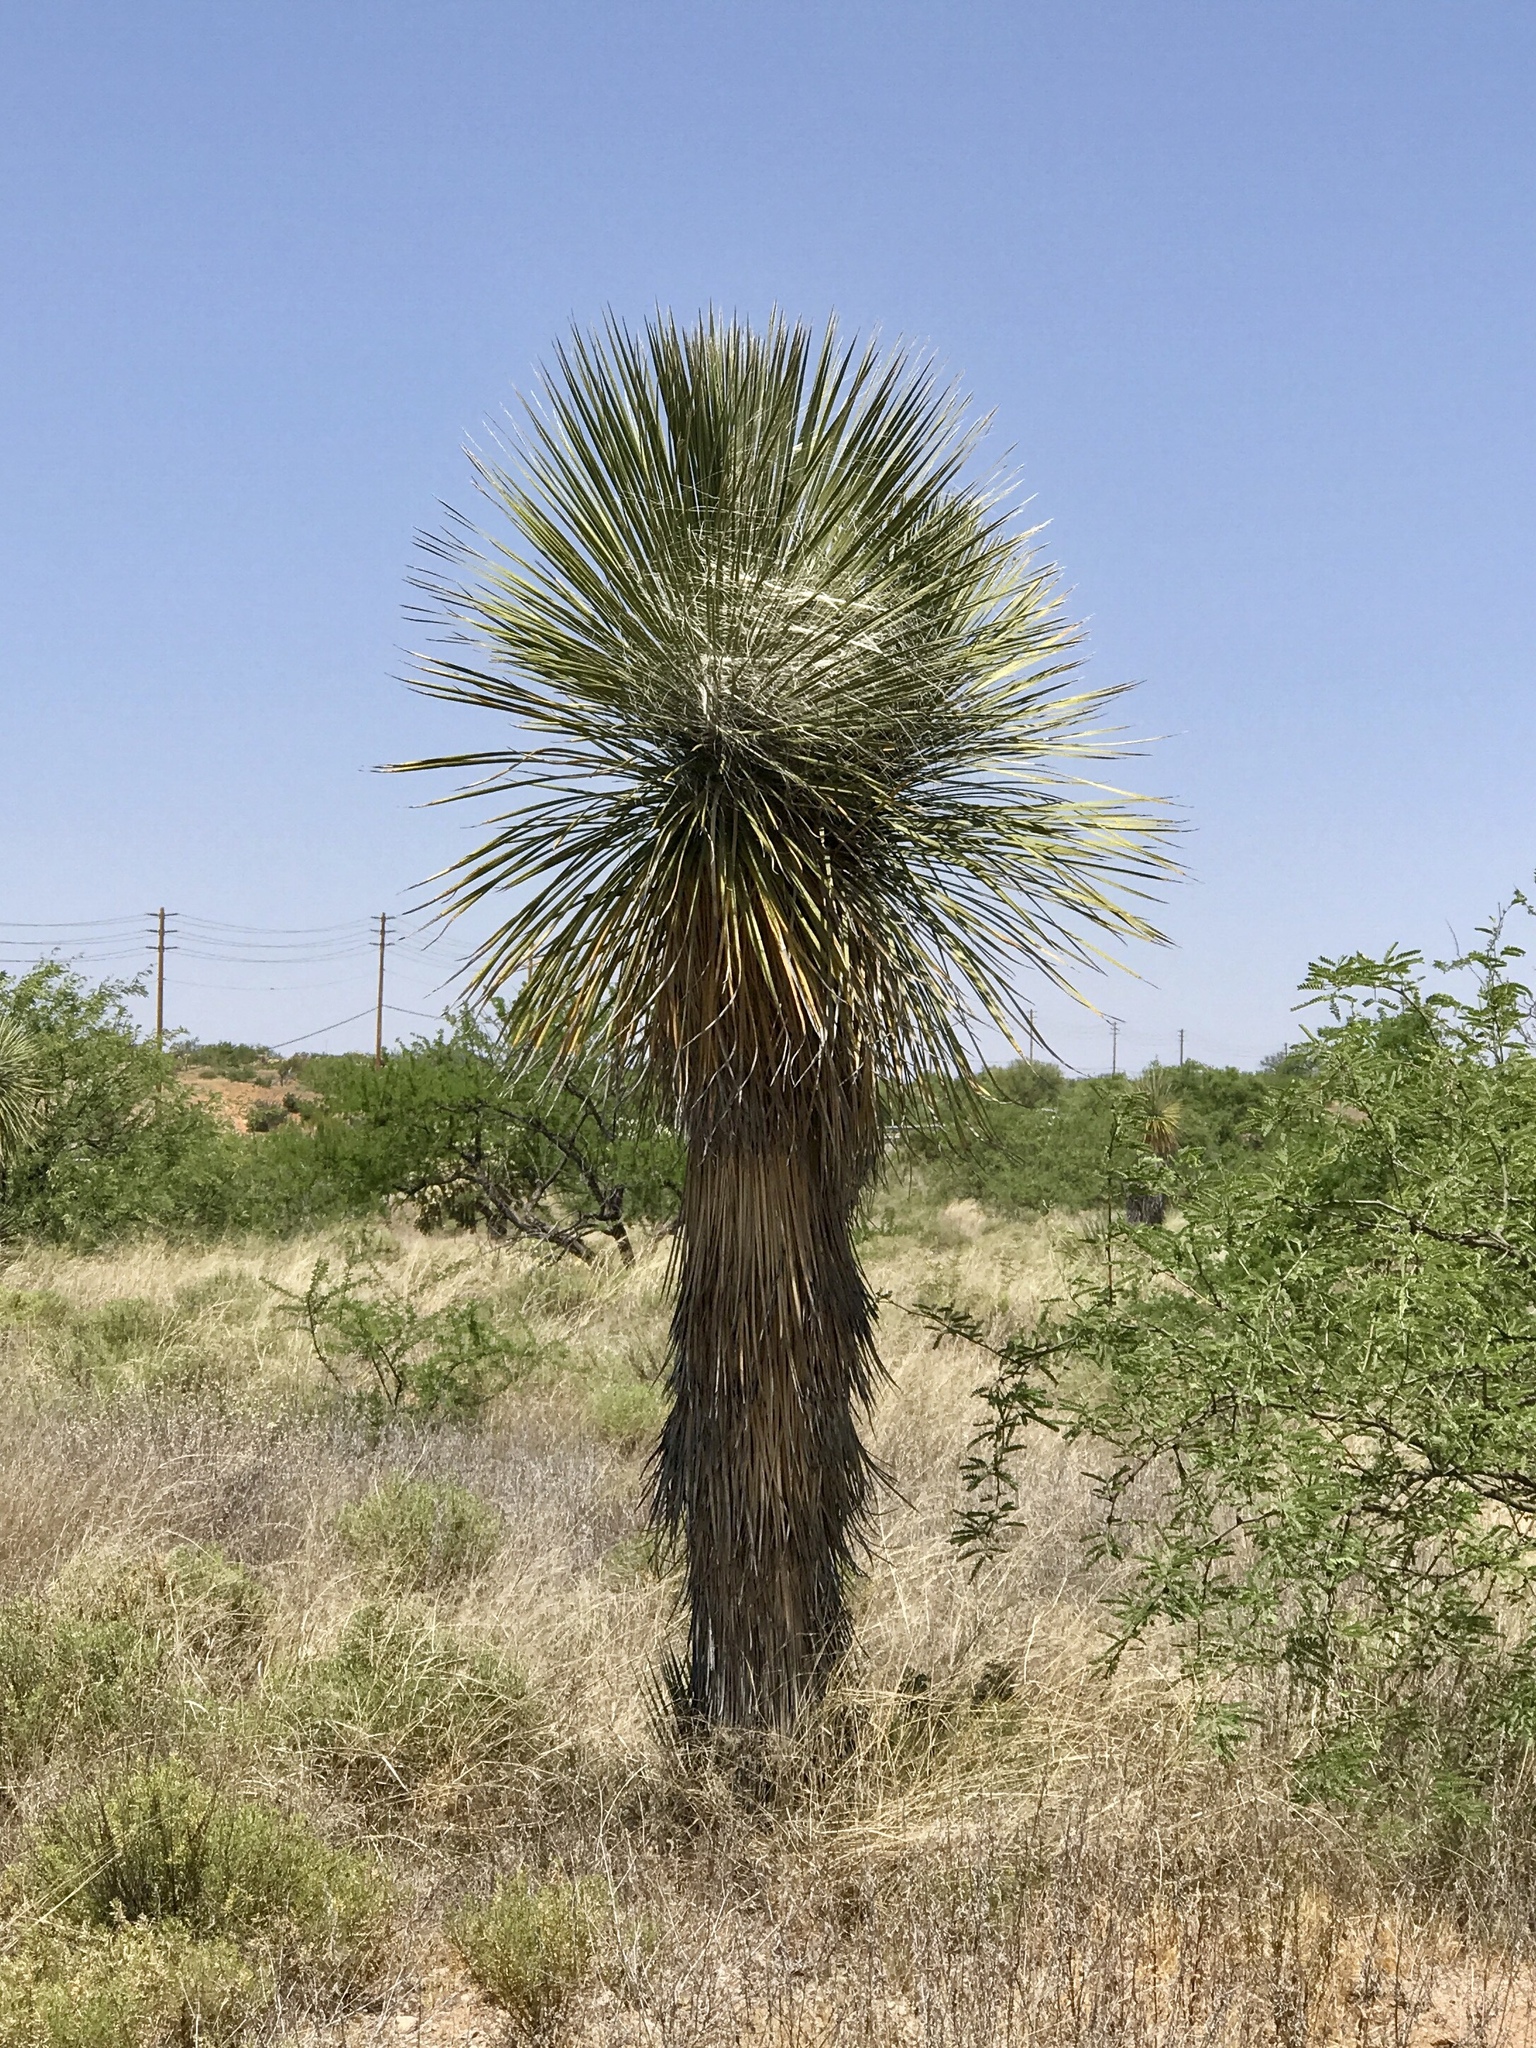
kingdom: Plantae
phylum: Tracheophyta
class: Liliopsida
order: Asparagales
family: Asparagaceae
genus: Yucca
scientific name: Yucca elata
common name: Palmella
